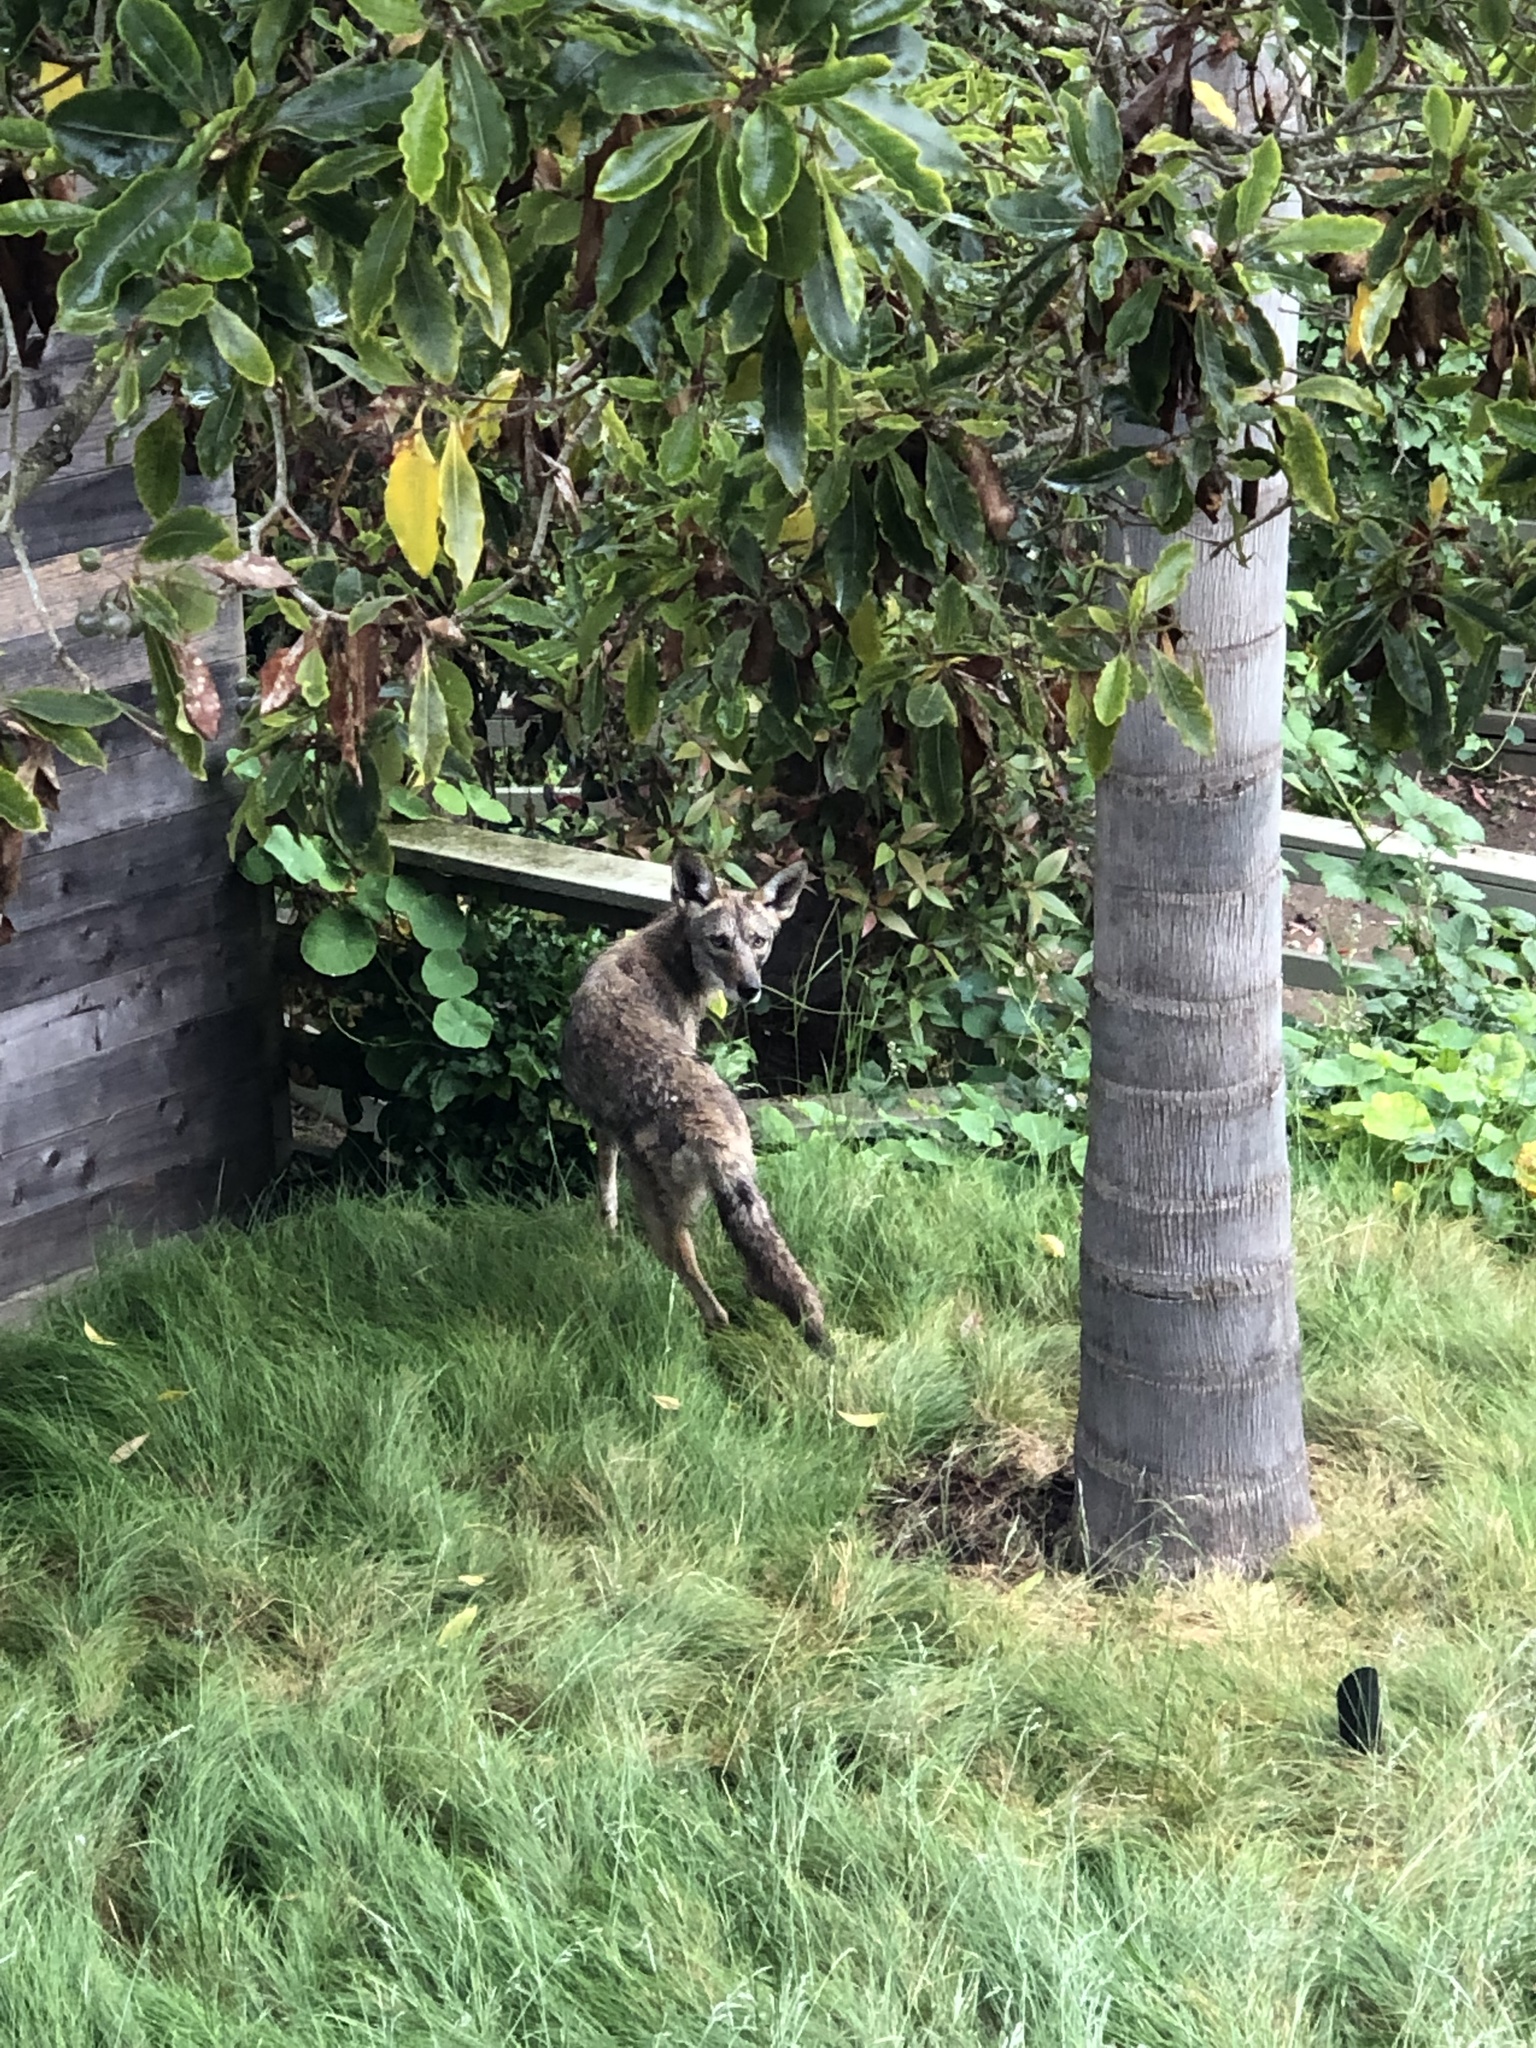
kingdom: Animalia
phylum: Chordata
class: Mammalia
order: Carnivora
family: Canidae
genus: Canis
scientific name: Canis latrans
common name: Coyote
